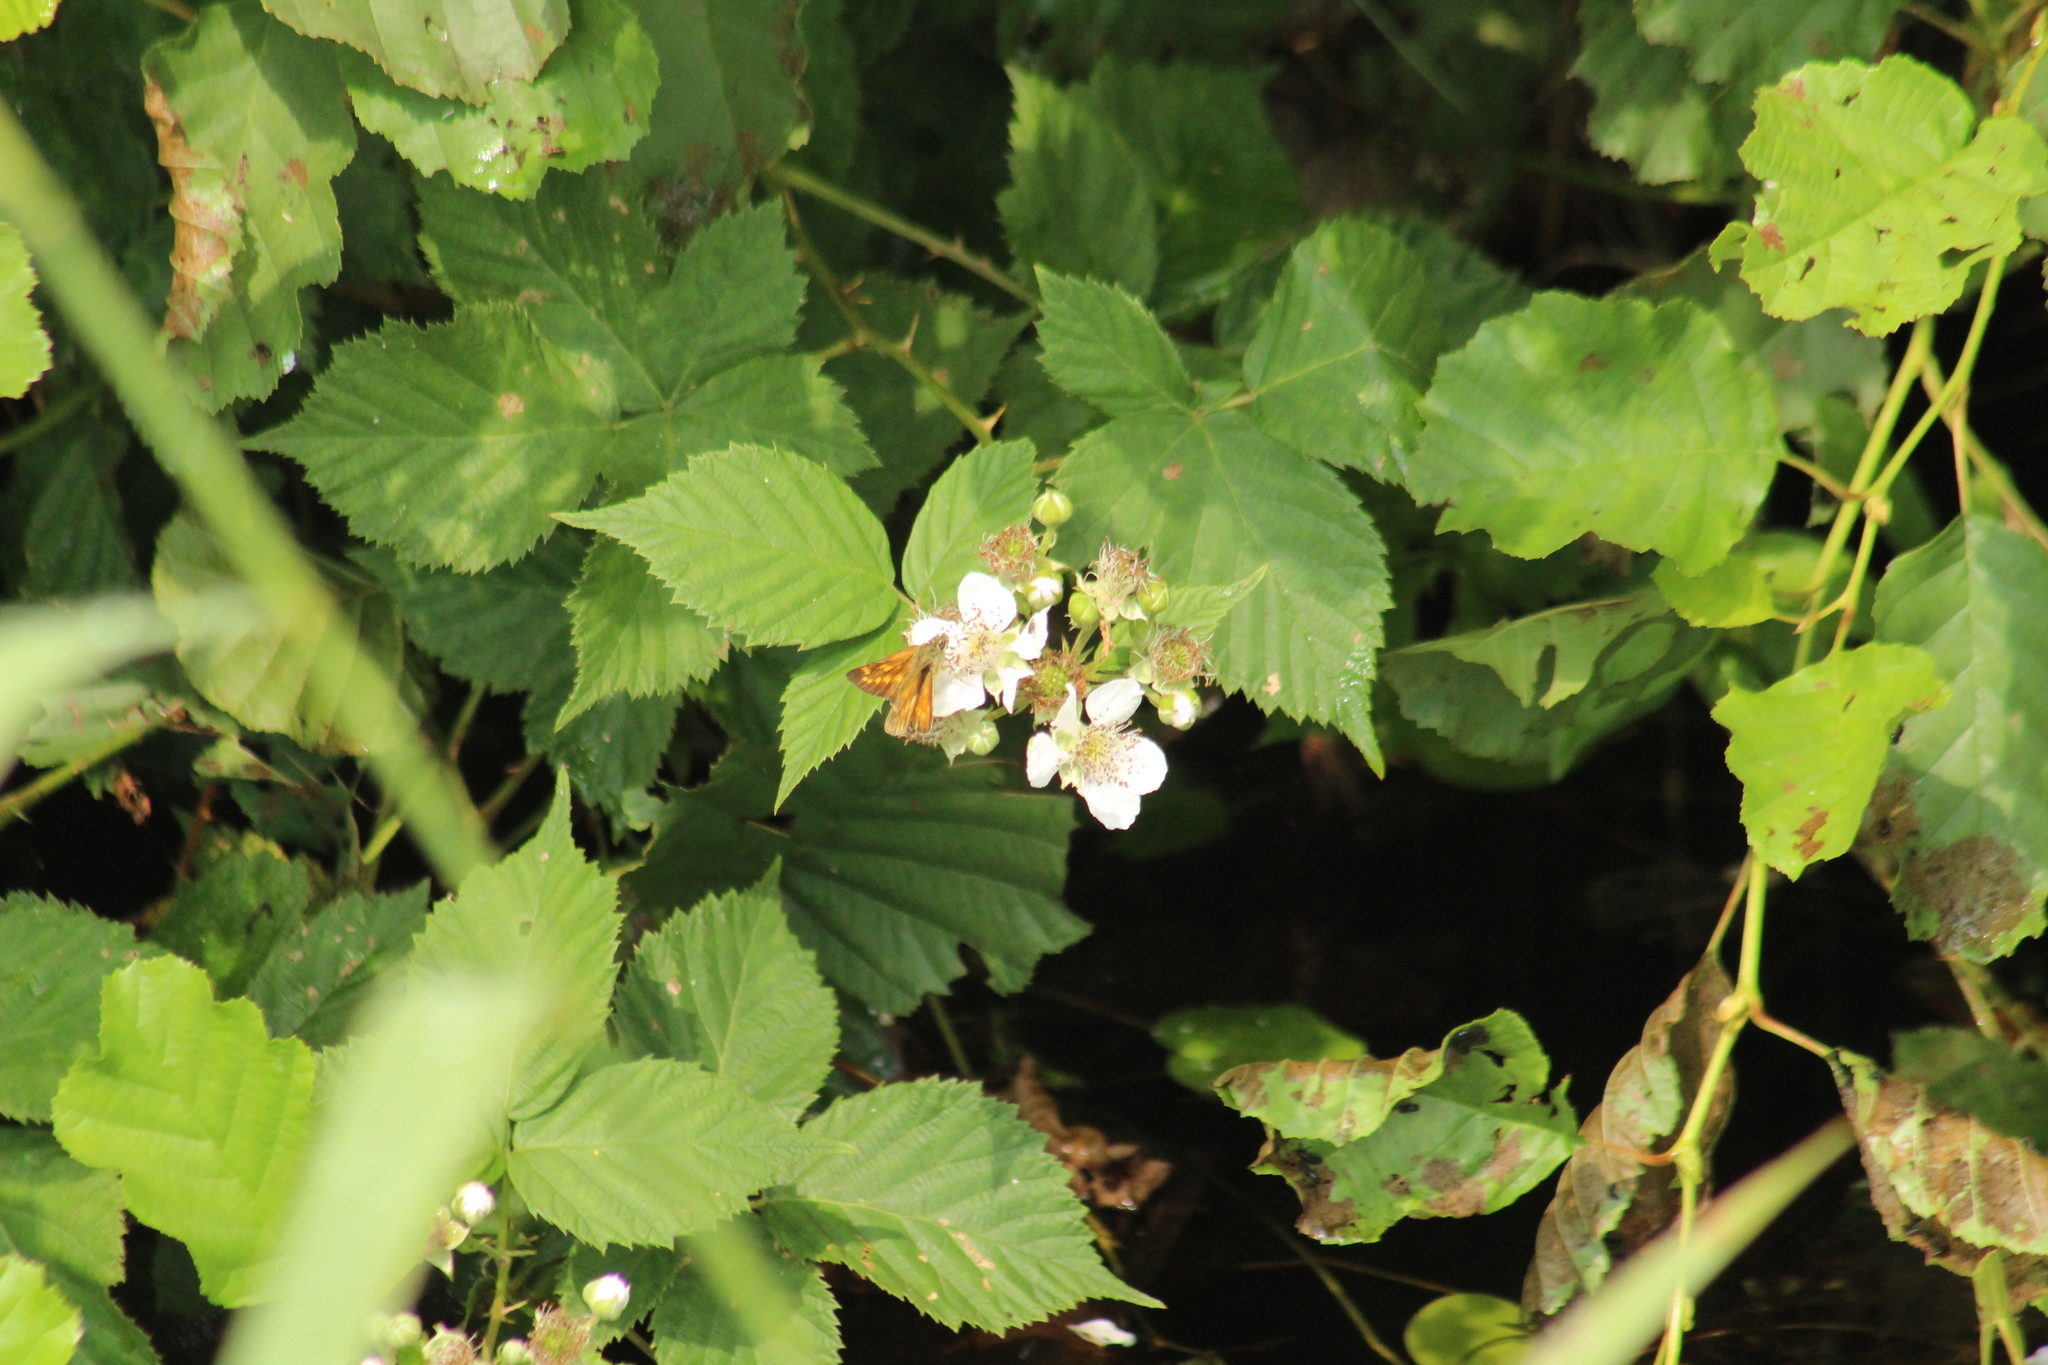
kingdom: Animalia
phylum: Arthropoda
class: Insecta
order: Lepidoptera
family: Hesperiidae
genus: Ochlodes
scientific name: Ochlodes venata
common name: Large skipper
